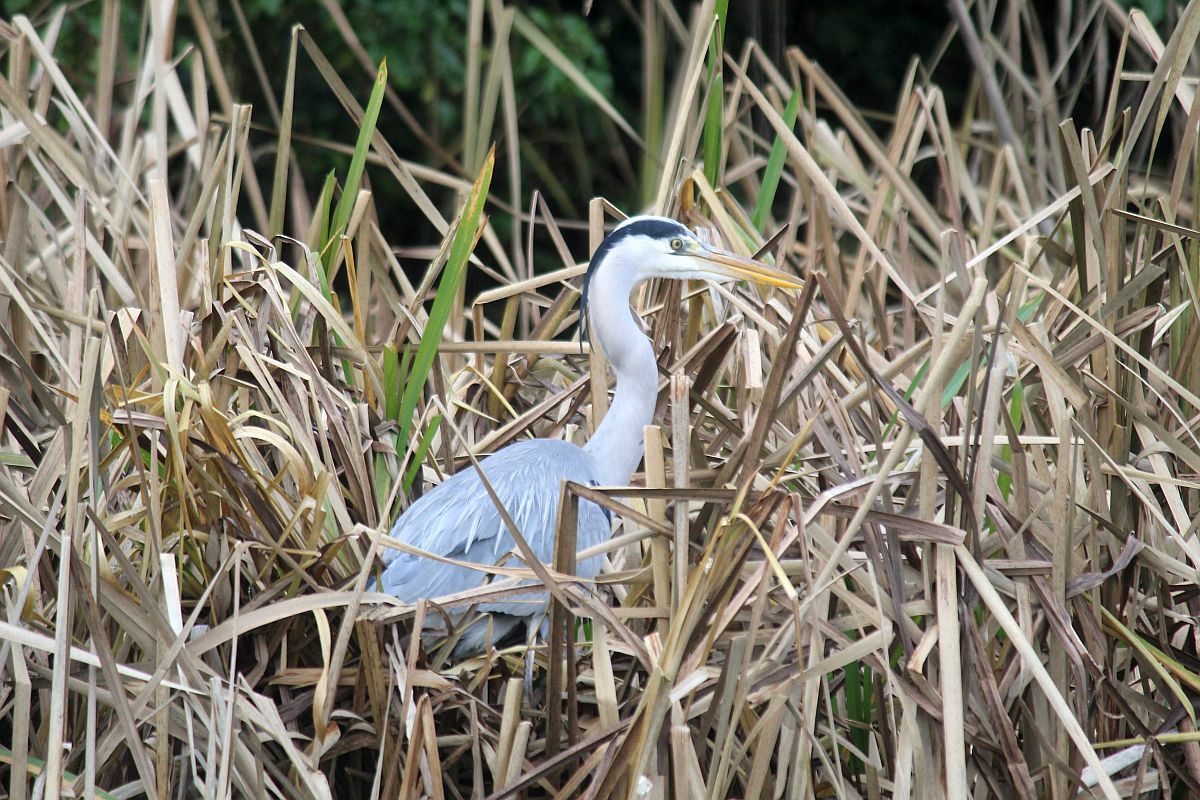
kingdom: Animalia
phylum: Chordata
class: Aves
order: Pelecaniformes
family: Ardeidae
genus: Ardea
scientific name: Ardea cinerea
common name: Grey heron
